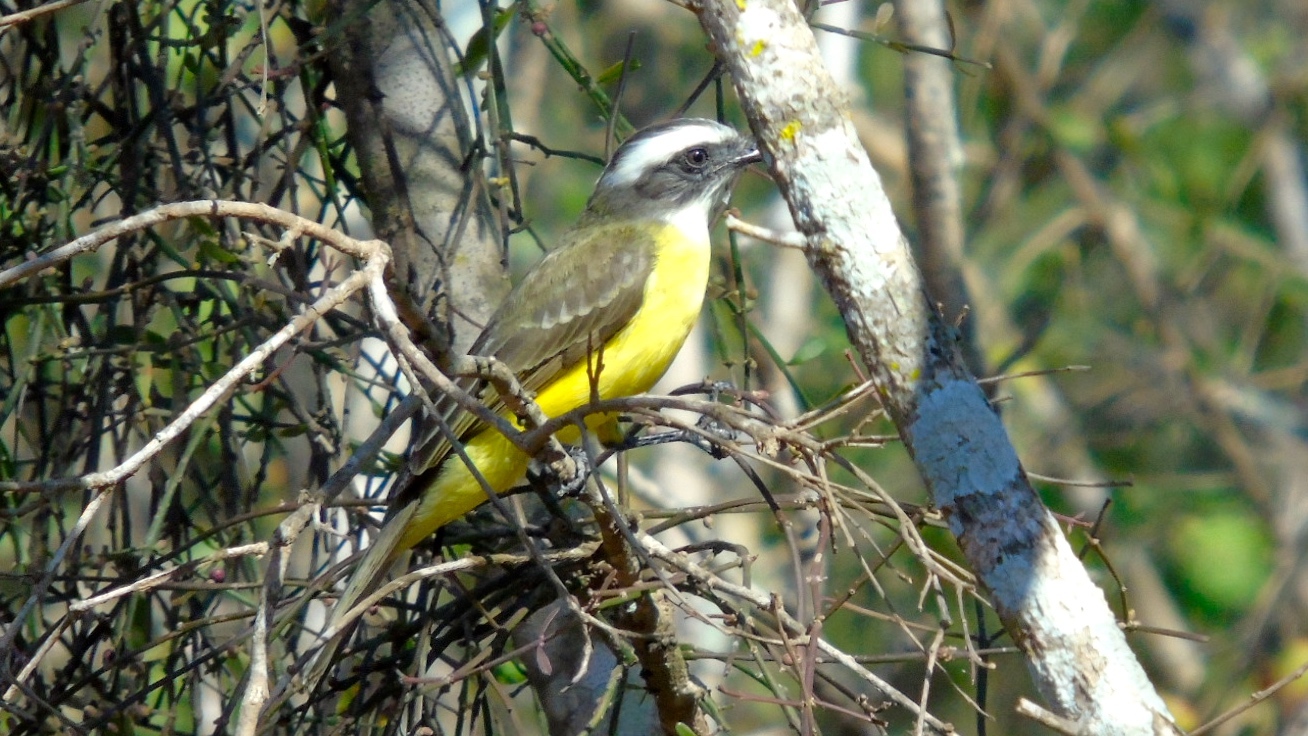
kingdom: Animalia
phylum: Chordata
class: Aves
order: Passeriformes
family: Tyrannidae
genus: Myiozetetes
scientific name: Myiozetetes similis
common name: Social flycatcher
